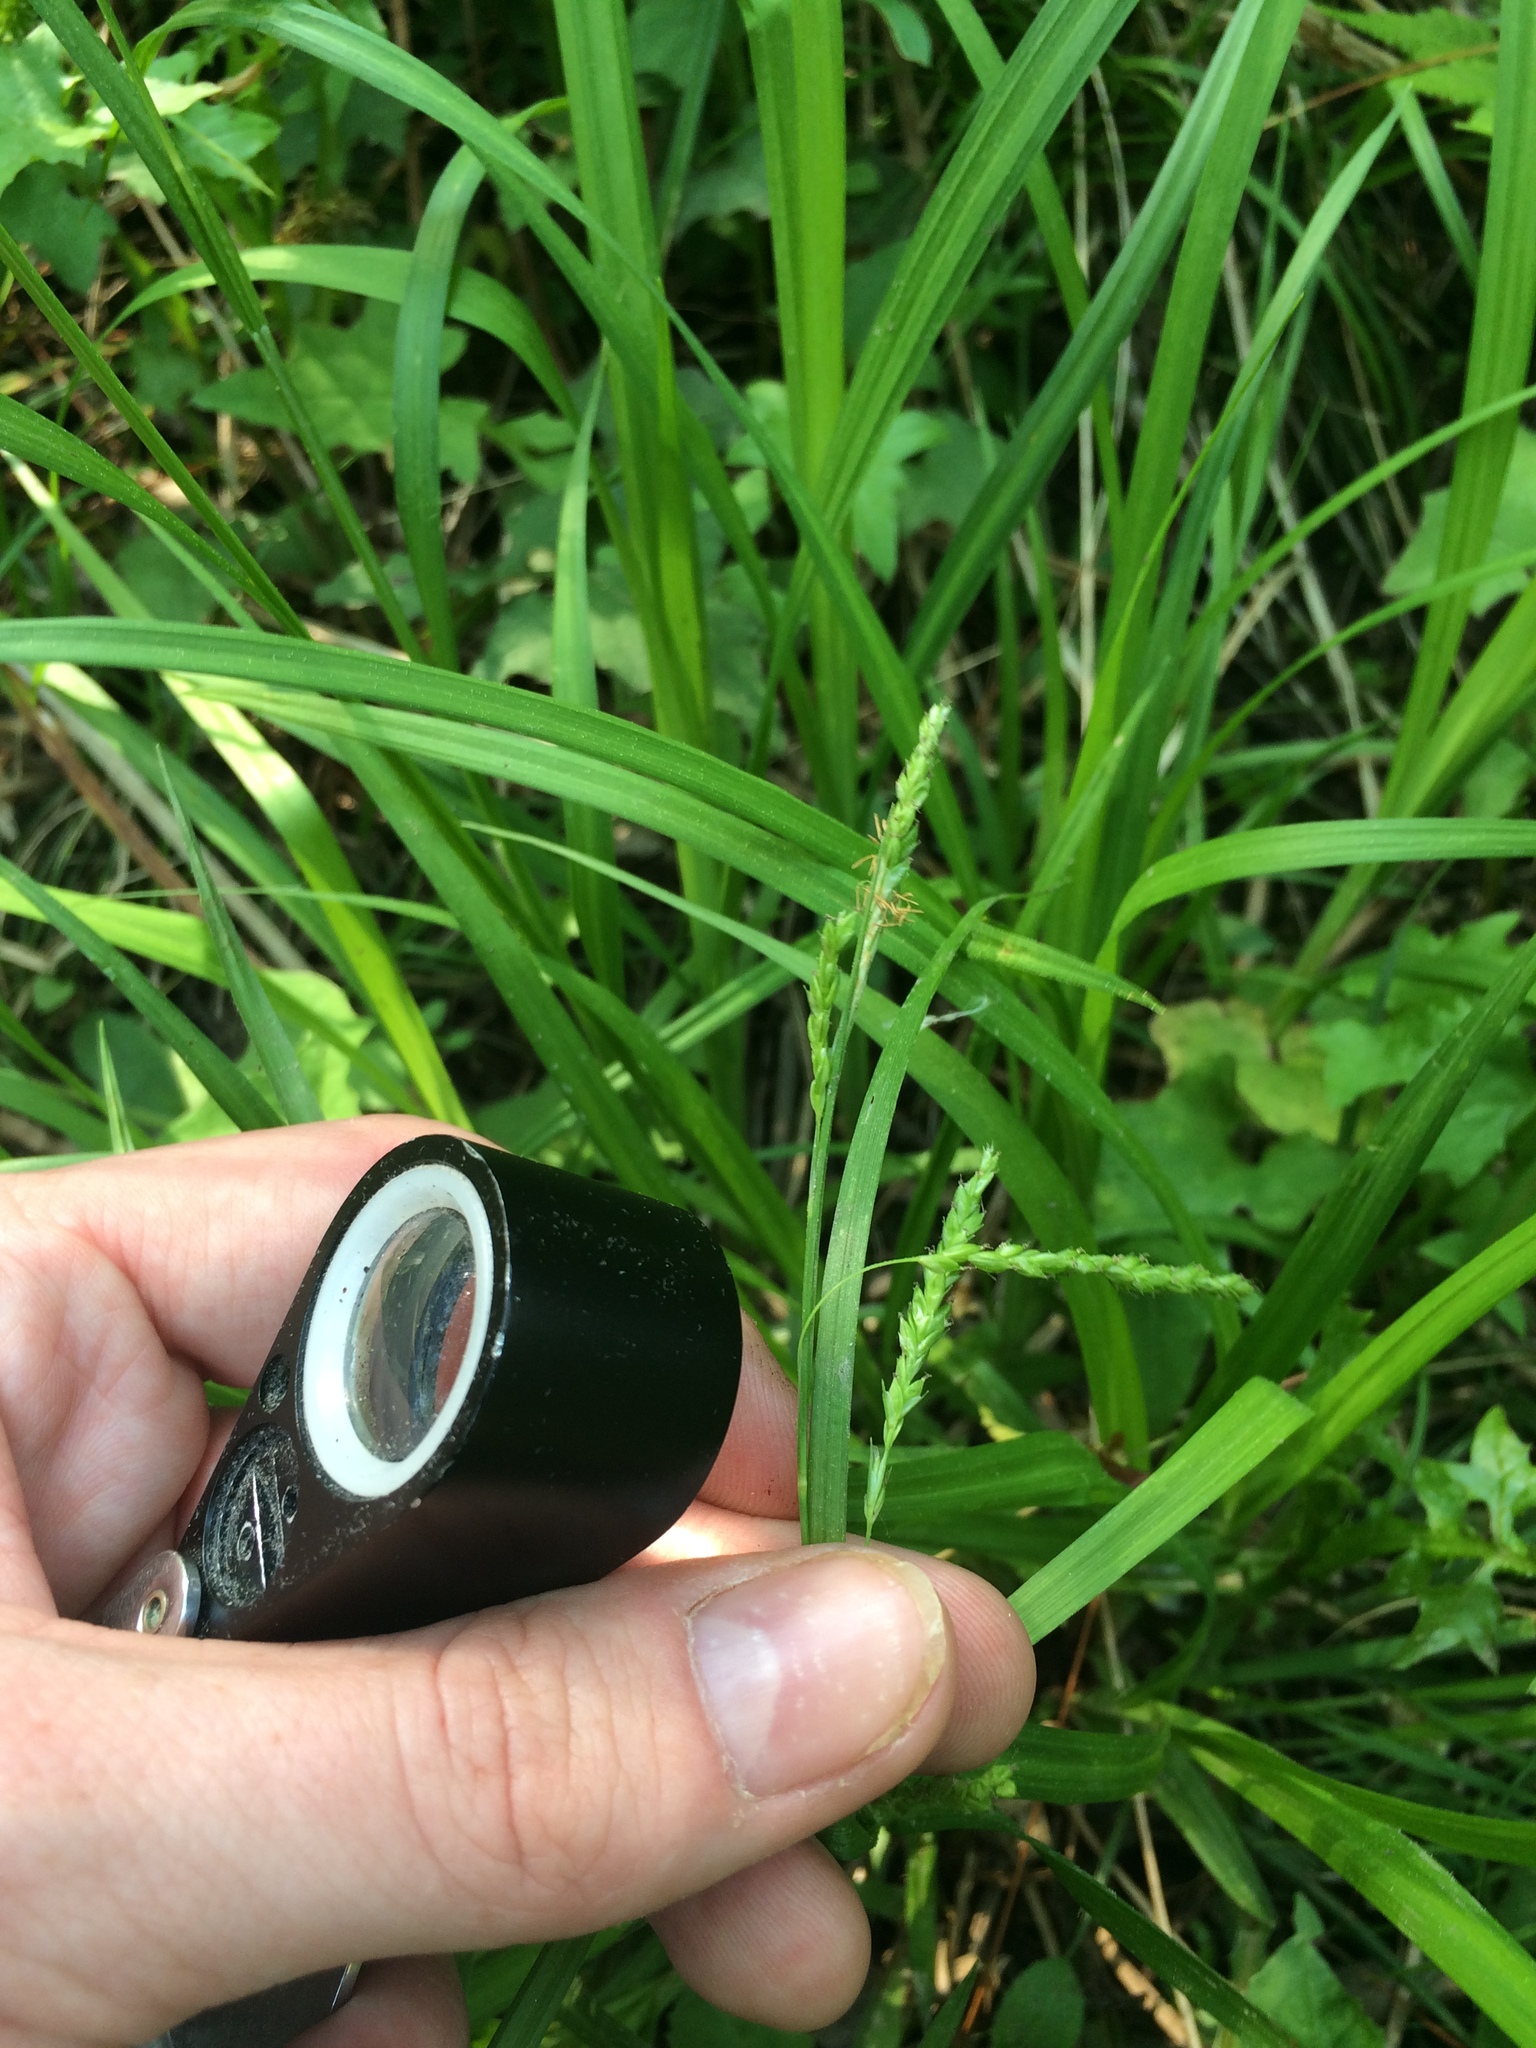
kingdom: Plantae
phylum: Tracheophyta
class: Liliopsida
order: Poales
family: Cyperaceae
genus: Carex
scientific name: Carex gracillima
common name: Graceful sedge
